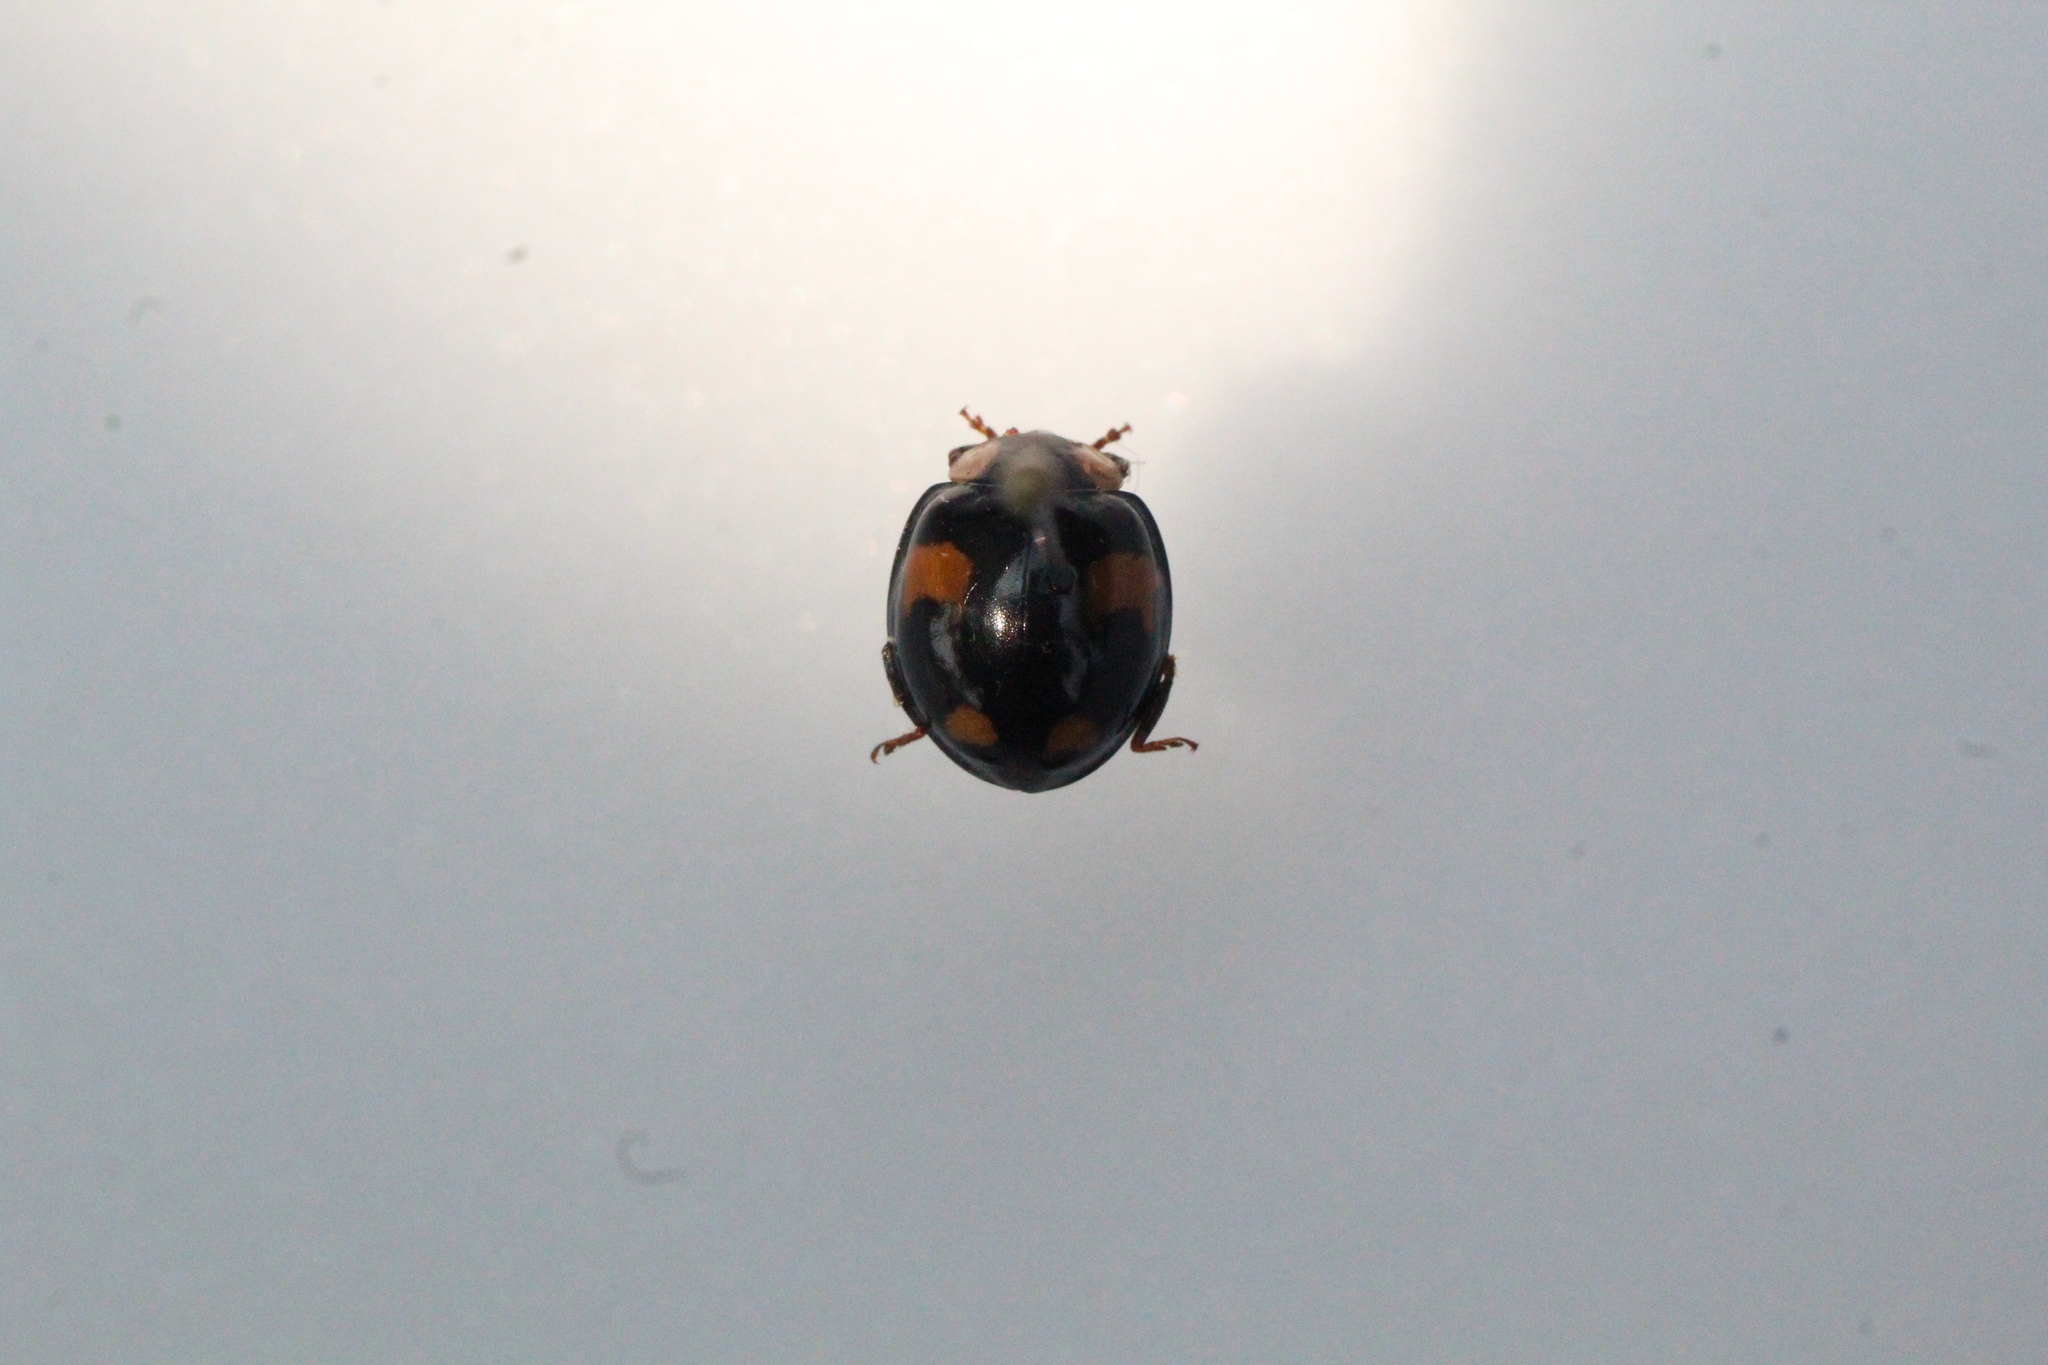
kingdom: Animalia
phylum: Arthropoda
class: Insecta
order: Coleoptera
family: Coccinellidae
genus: Harmonia
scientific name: Harmonia axyridis
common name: Harlequin ladybird
